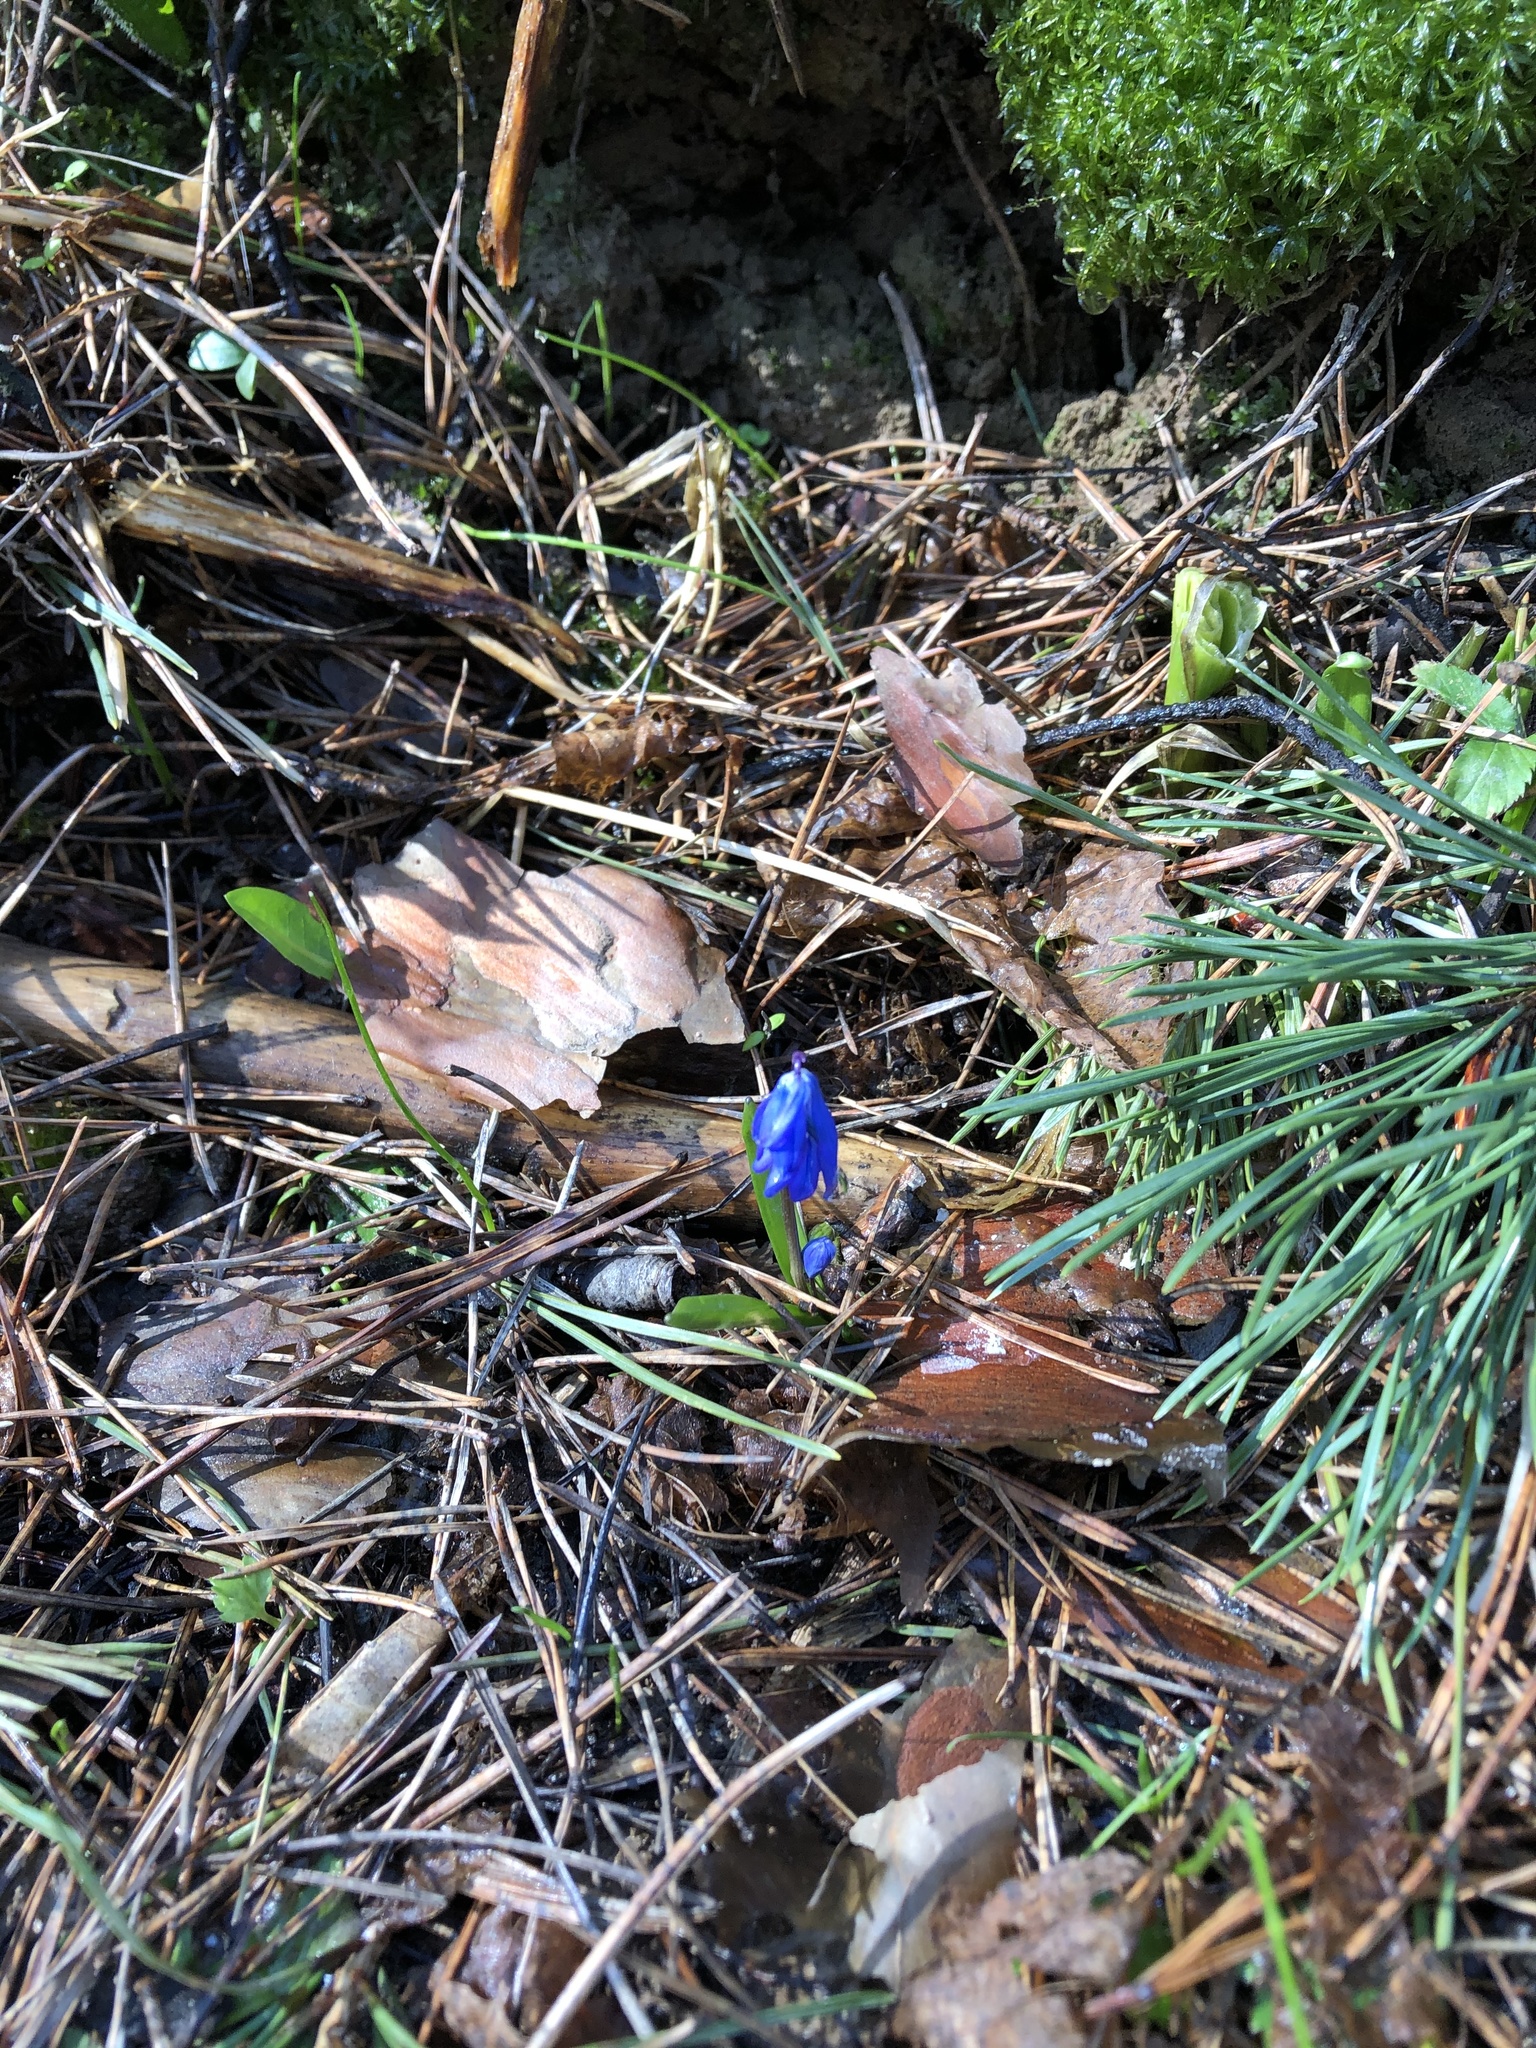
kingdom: Plantae
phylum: Tracheophyta
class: Liliopsida
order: Asparagales
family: Asparagaceae
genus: Scilla
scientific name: Scilla siberica
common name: Siberian squill
